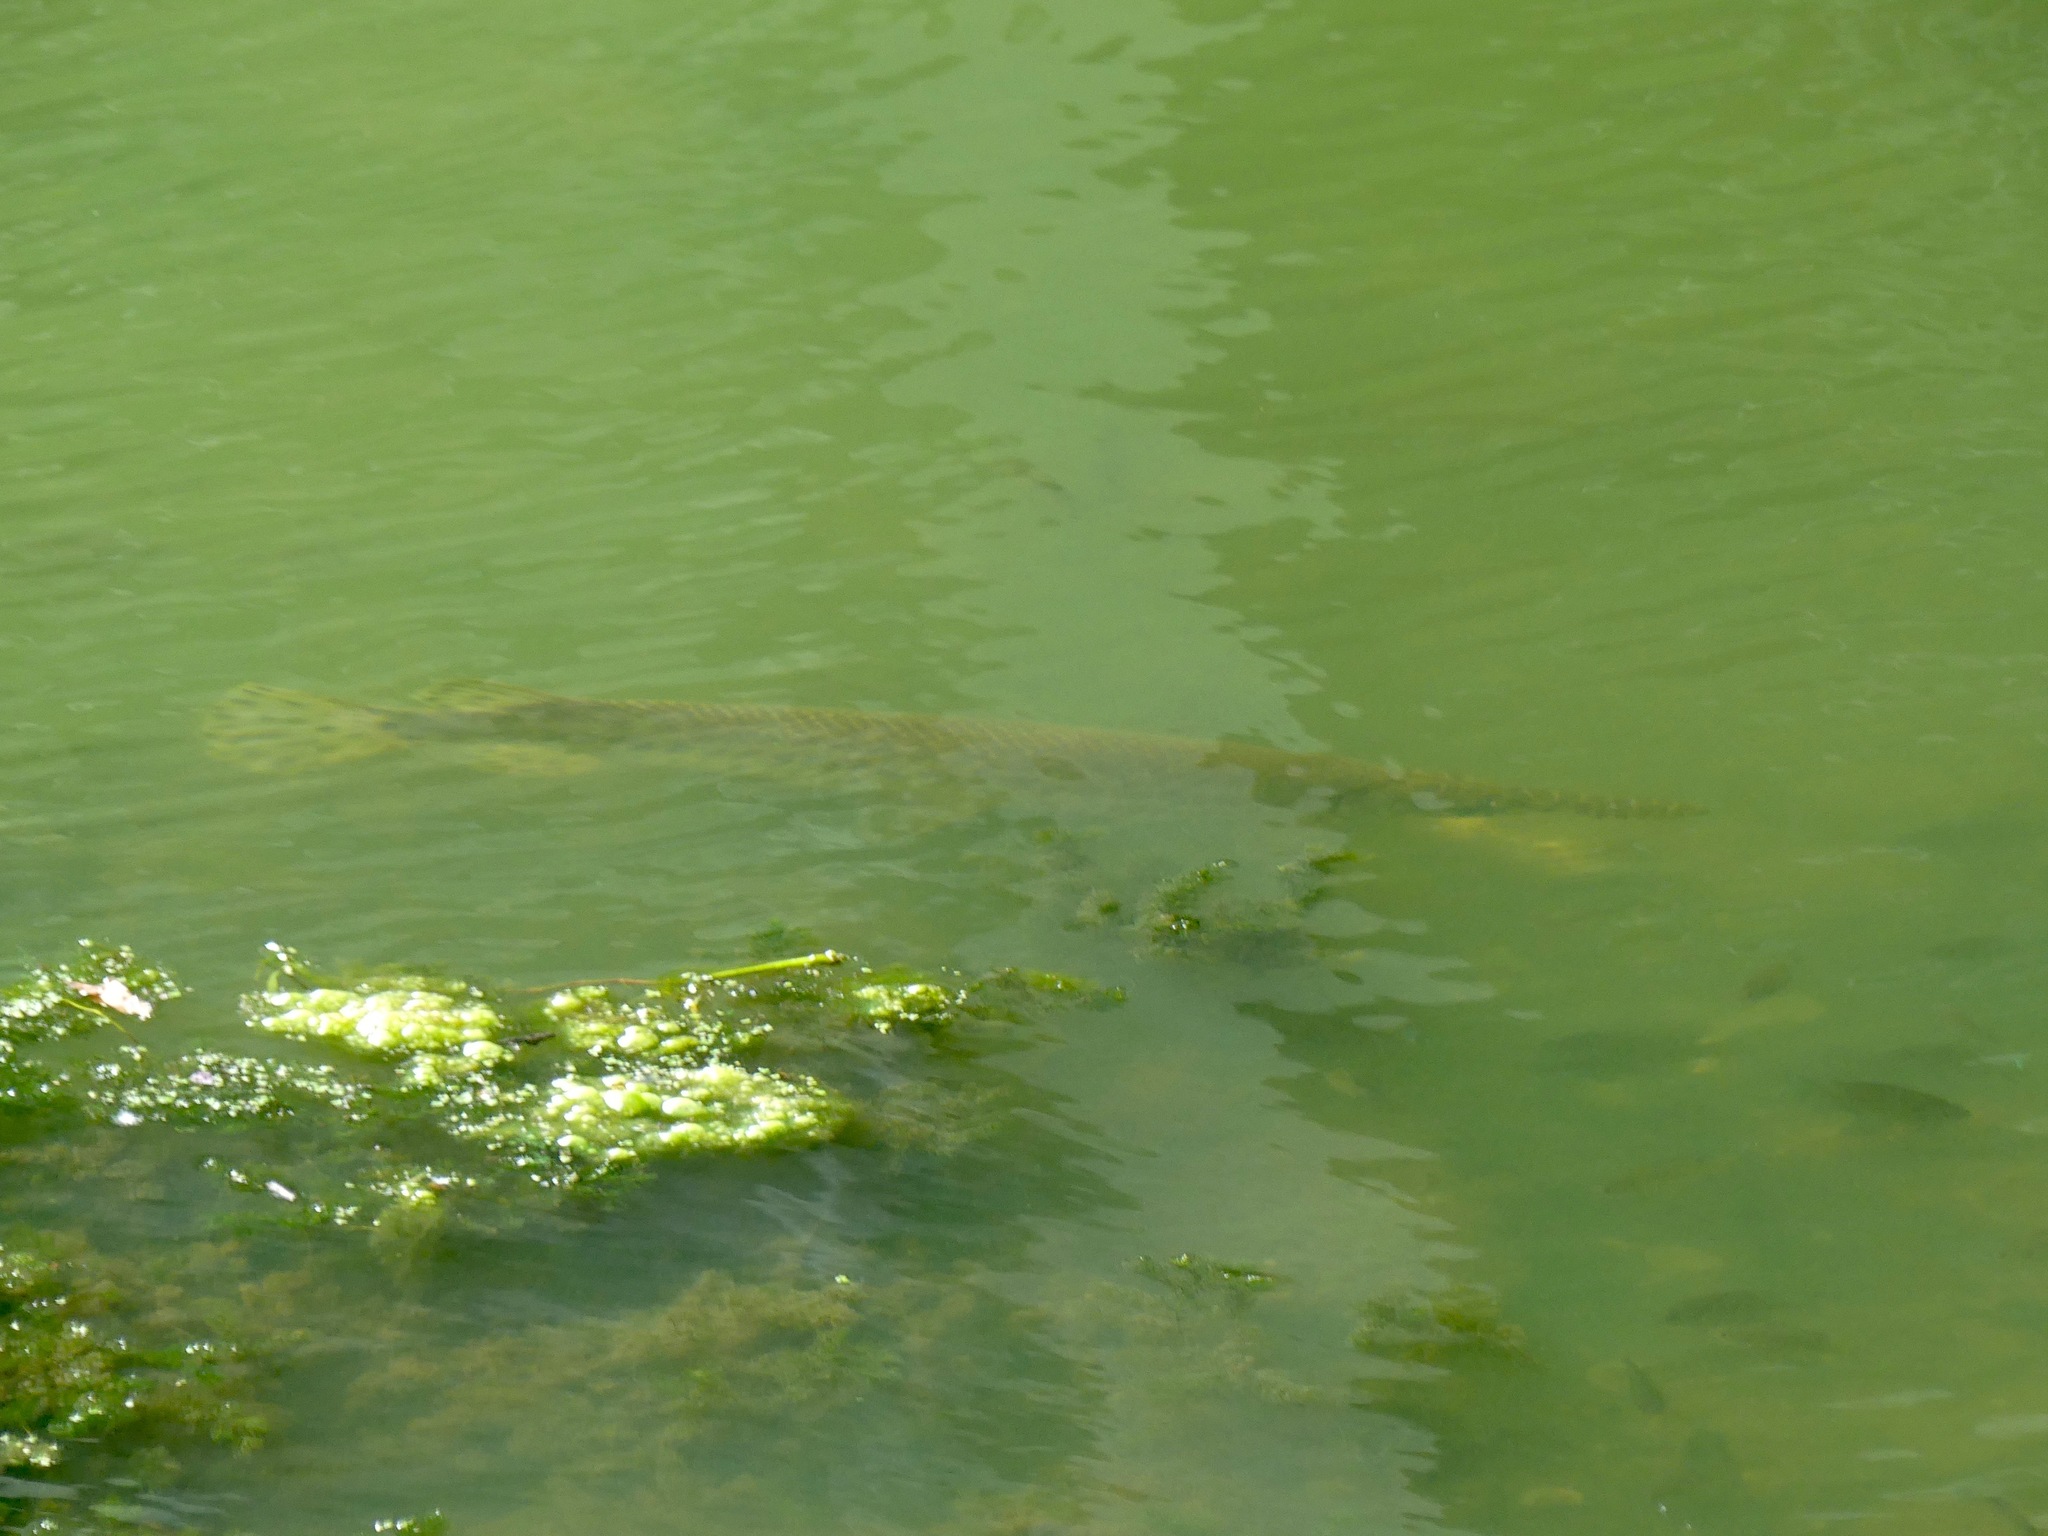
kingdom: Animalia
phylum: Chordata
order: Lepisosteiformes
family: Lepisosteidae
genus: Lepisosteus
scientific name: Lepisosteus oculatus
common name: Spotted gar
